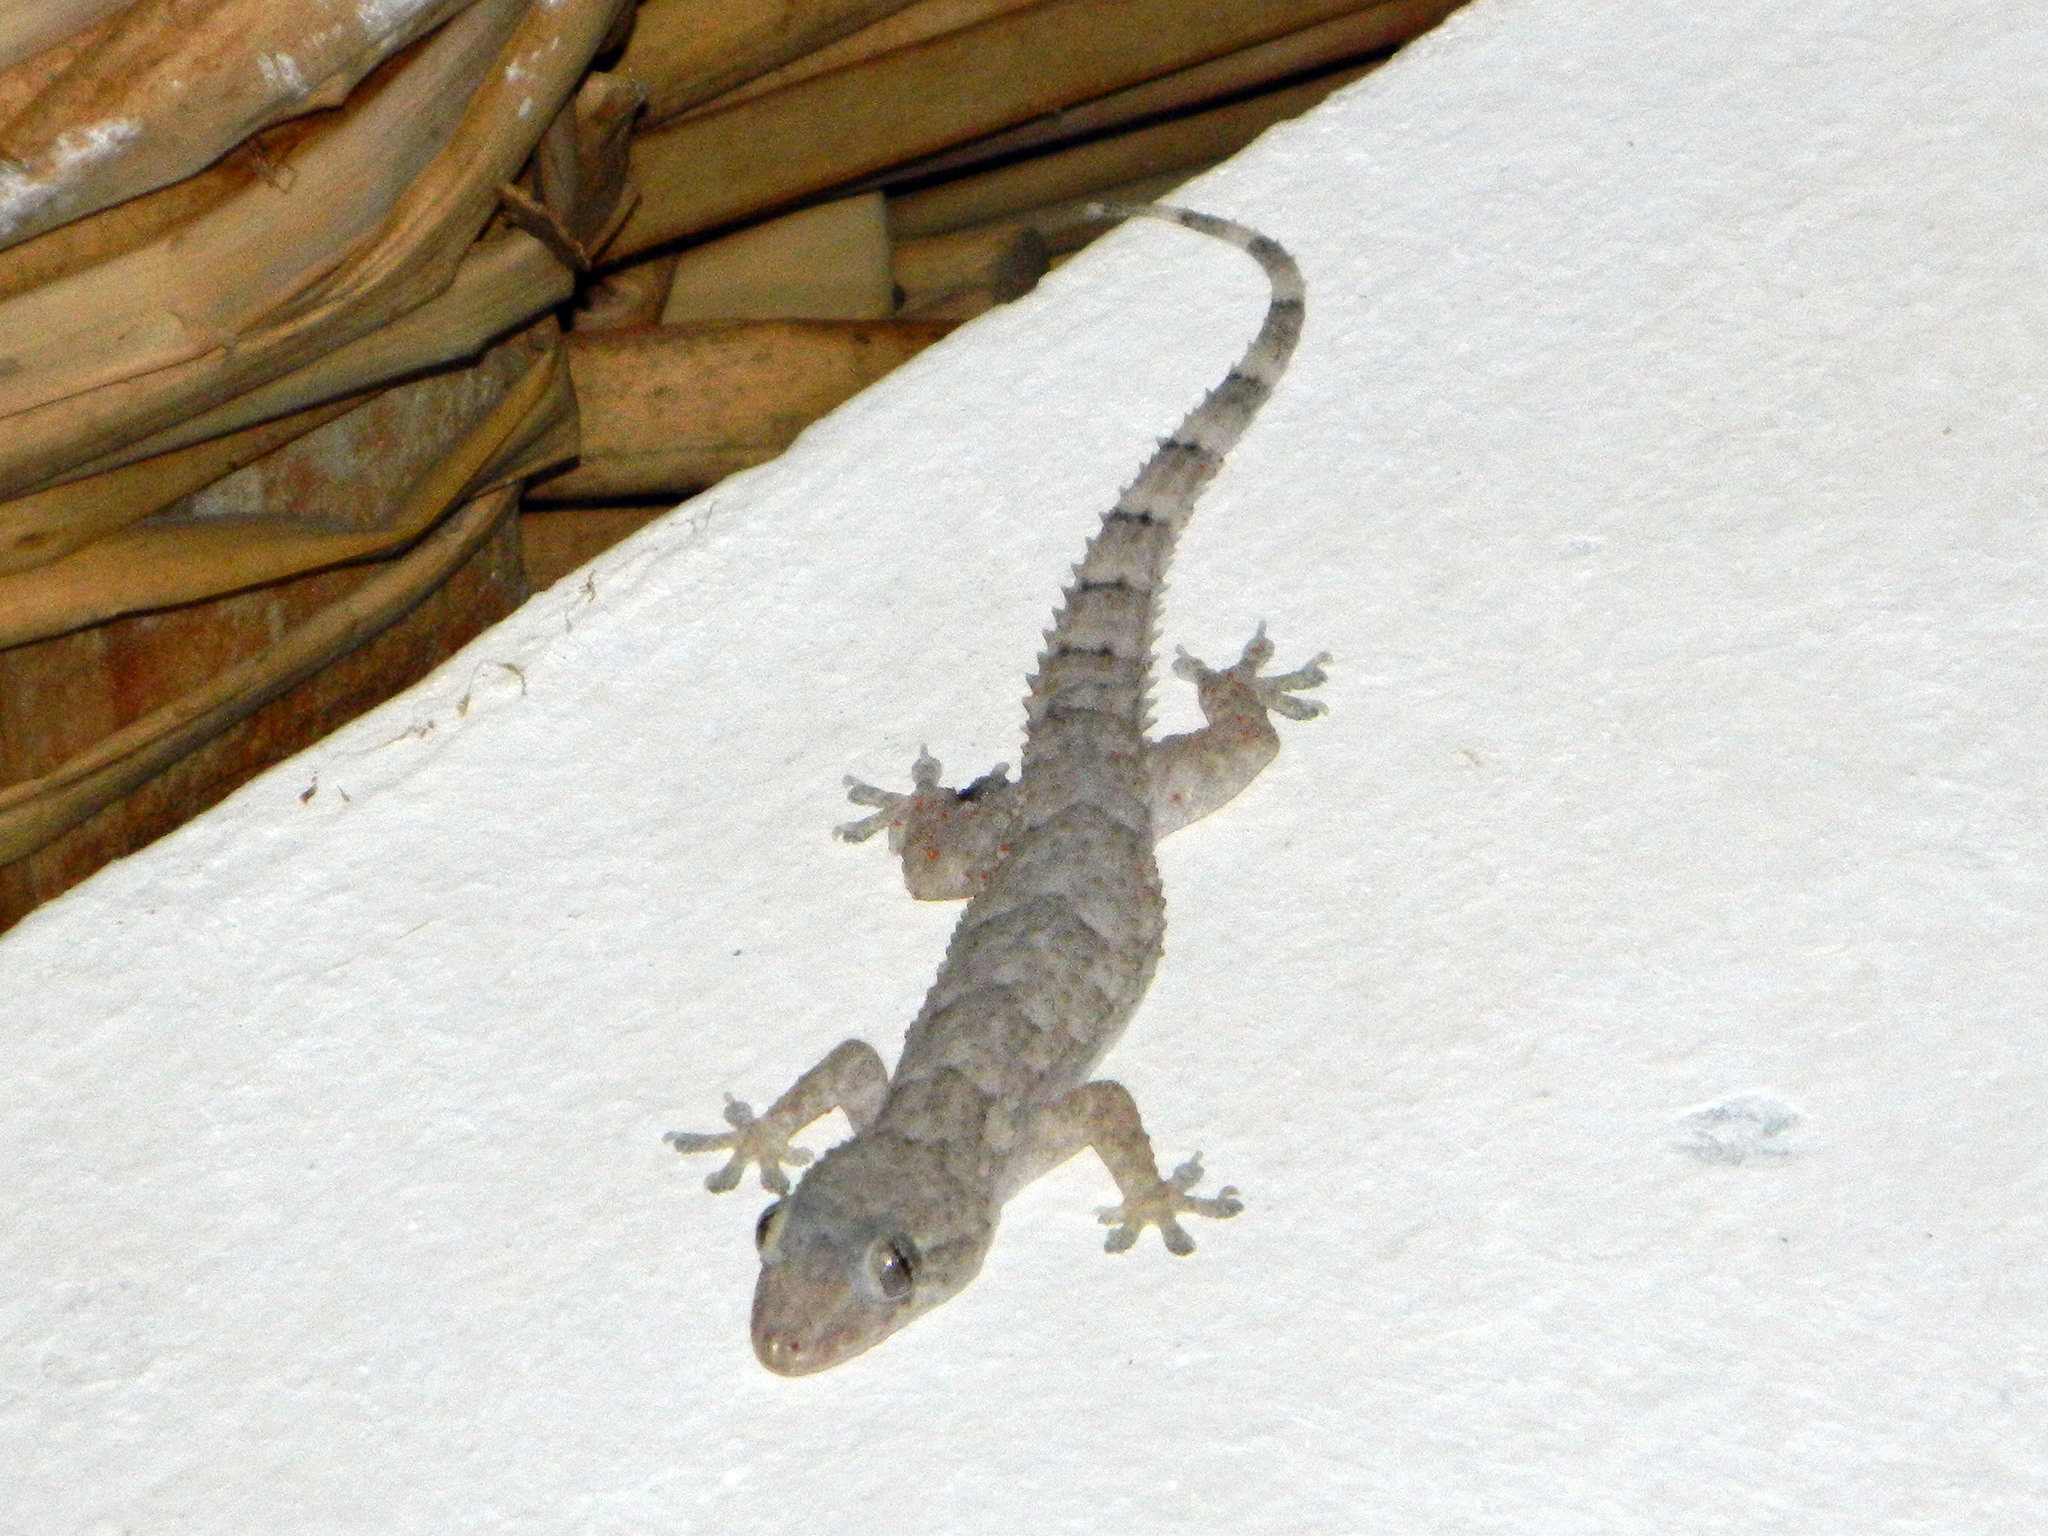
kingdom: Animalia
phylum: Chordata
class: Squamata
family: Gekkonidae
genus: Hemidactylus
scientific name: Hemidactylus mercatorius
